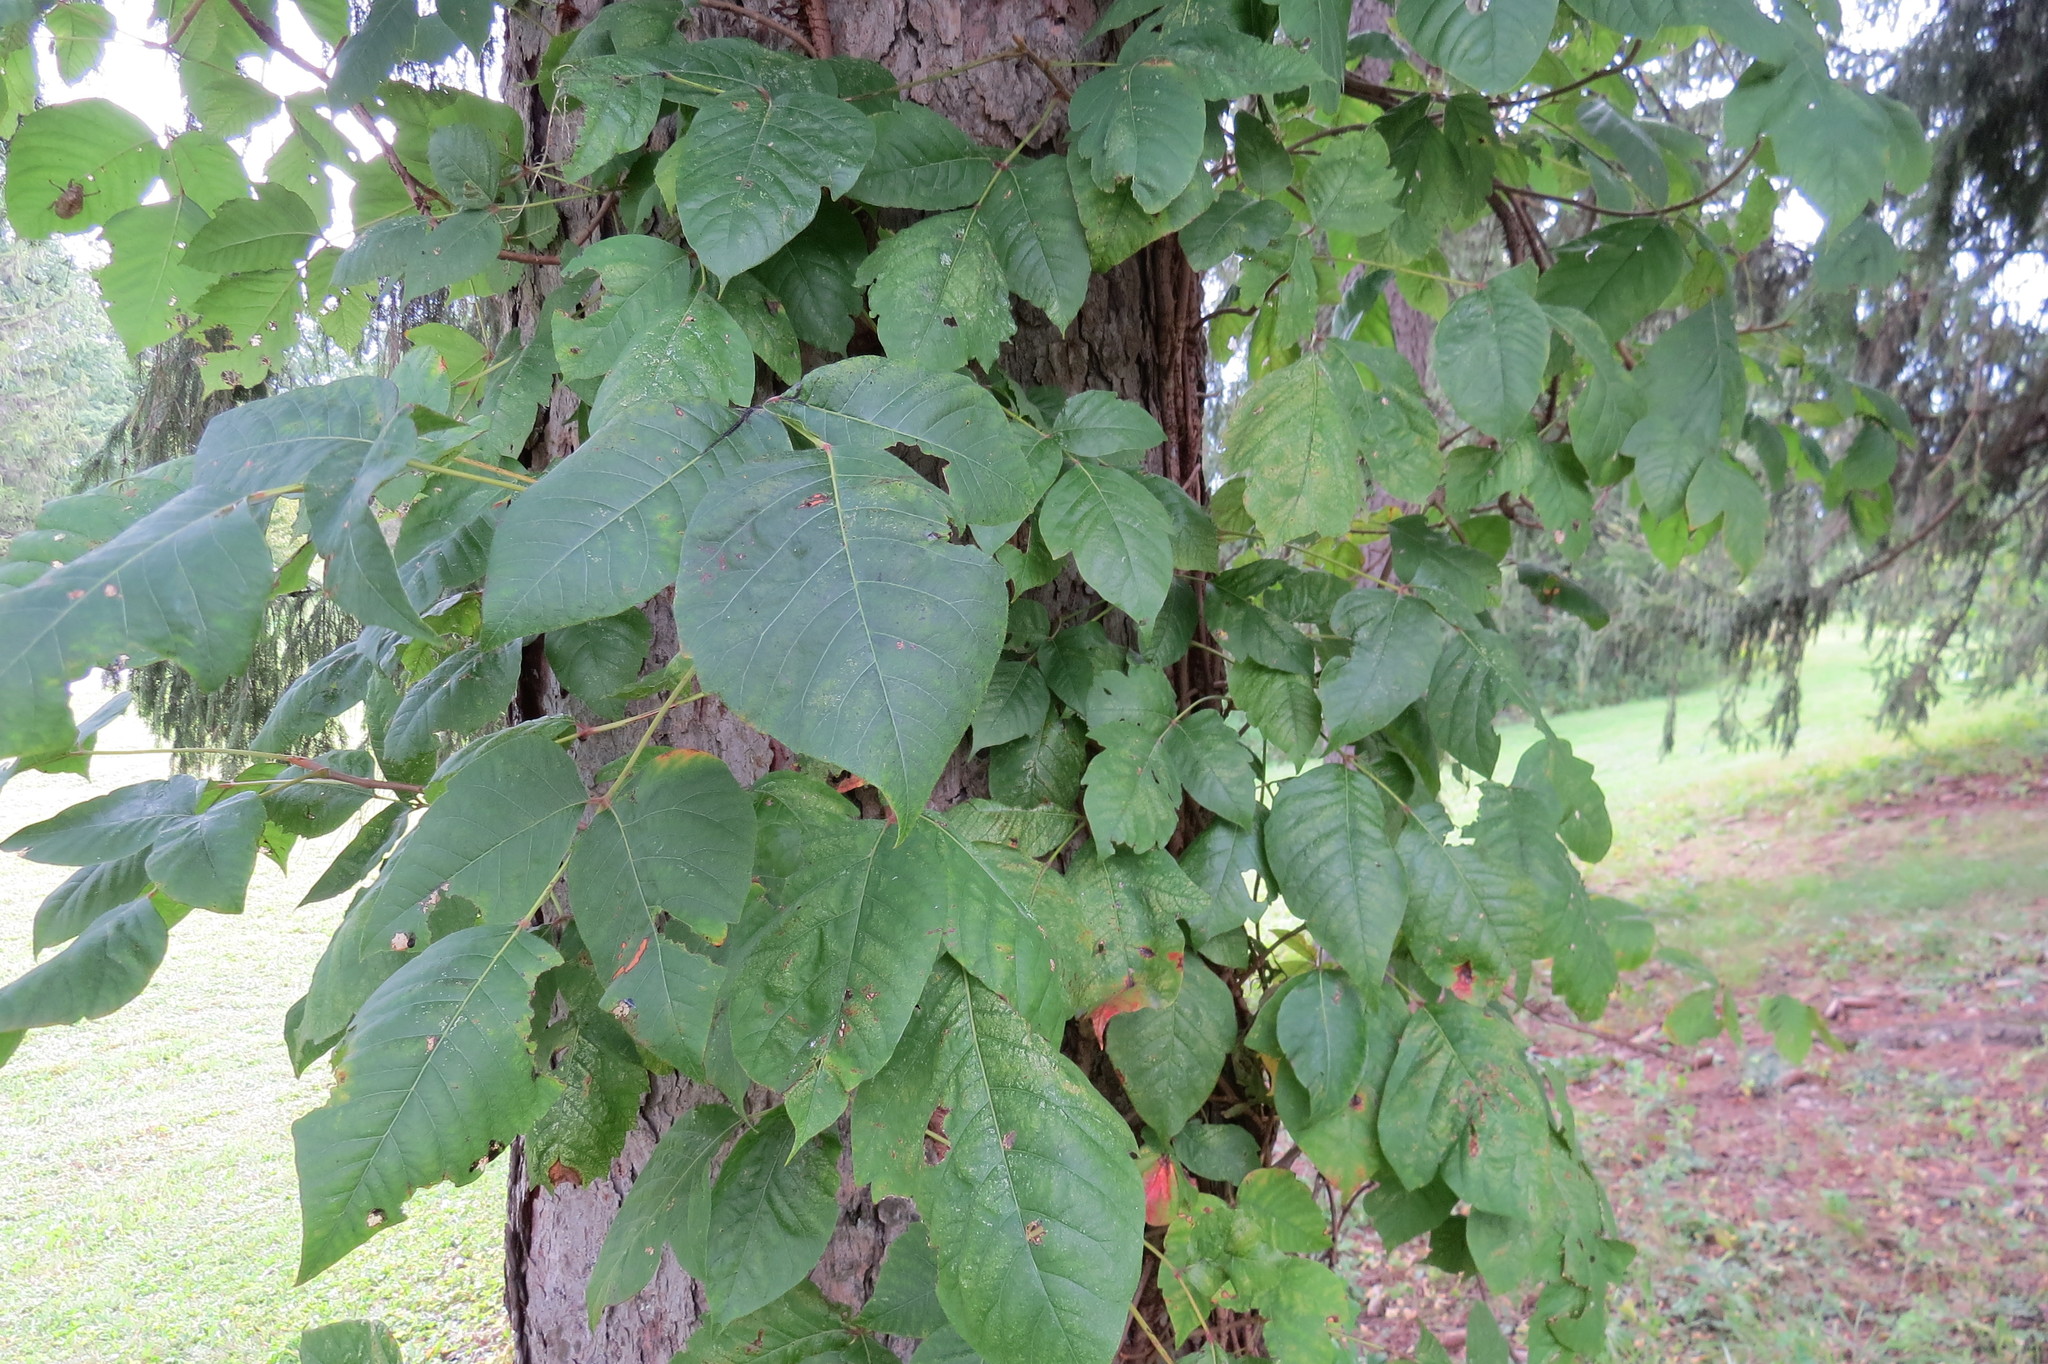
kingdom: Plantae
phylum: Tracheophyta
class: Magnoliopsida
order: Sapindales
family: Anacardiaceae
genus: Toxicodendron
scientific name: Toxicodendron radicans
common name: Poison ivy
